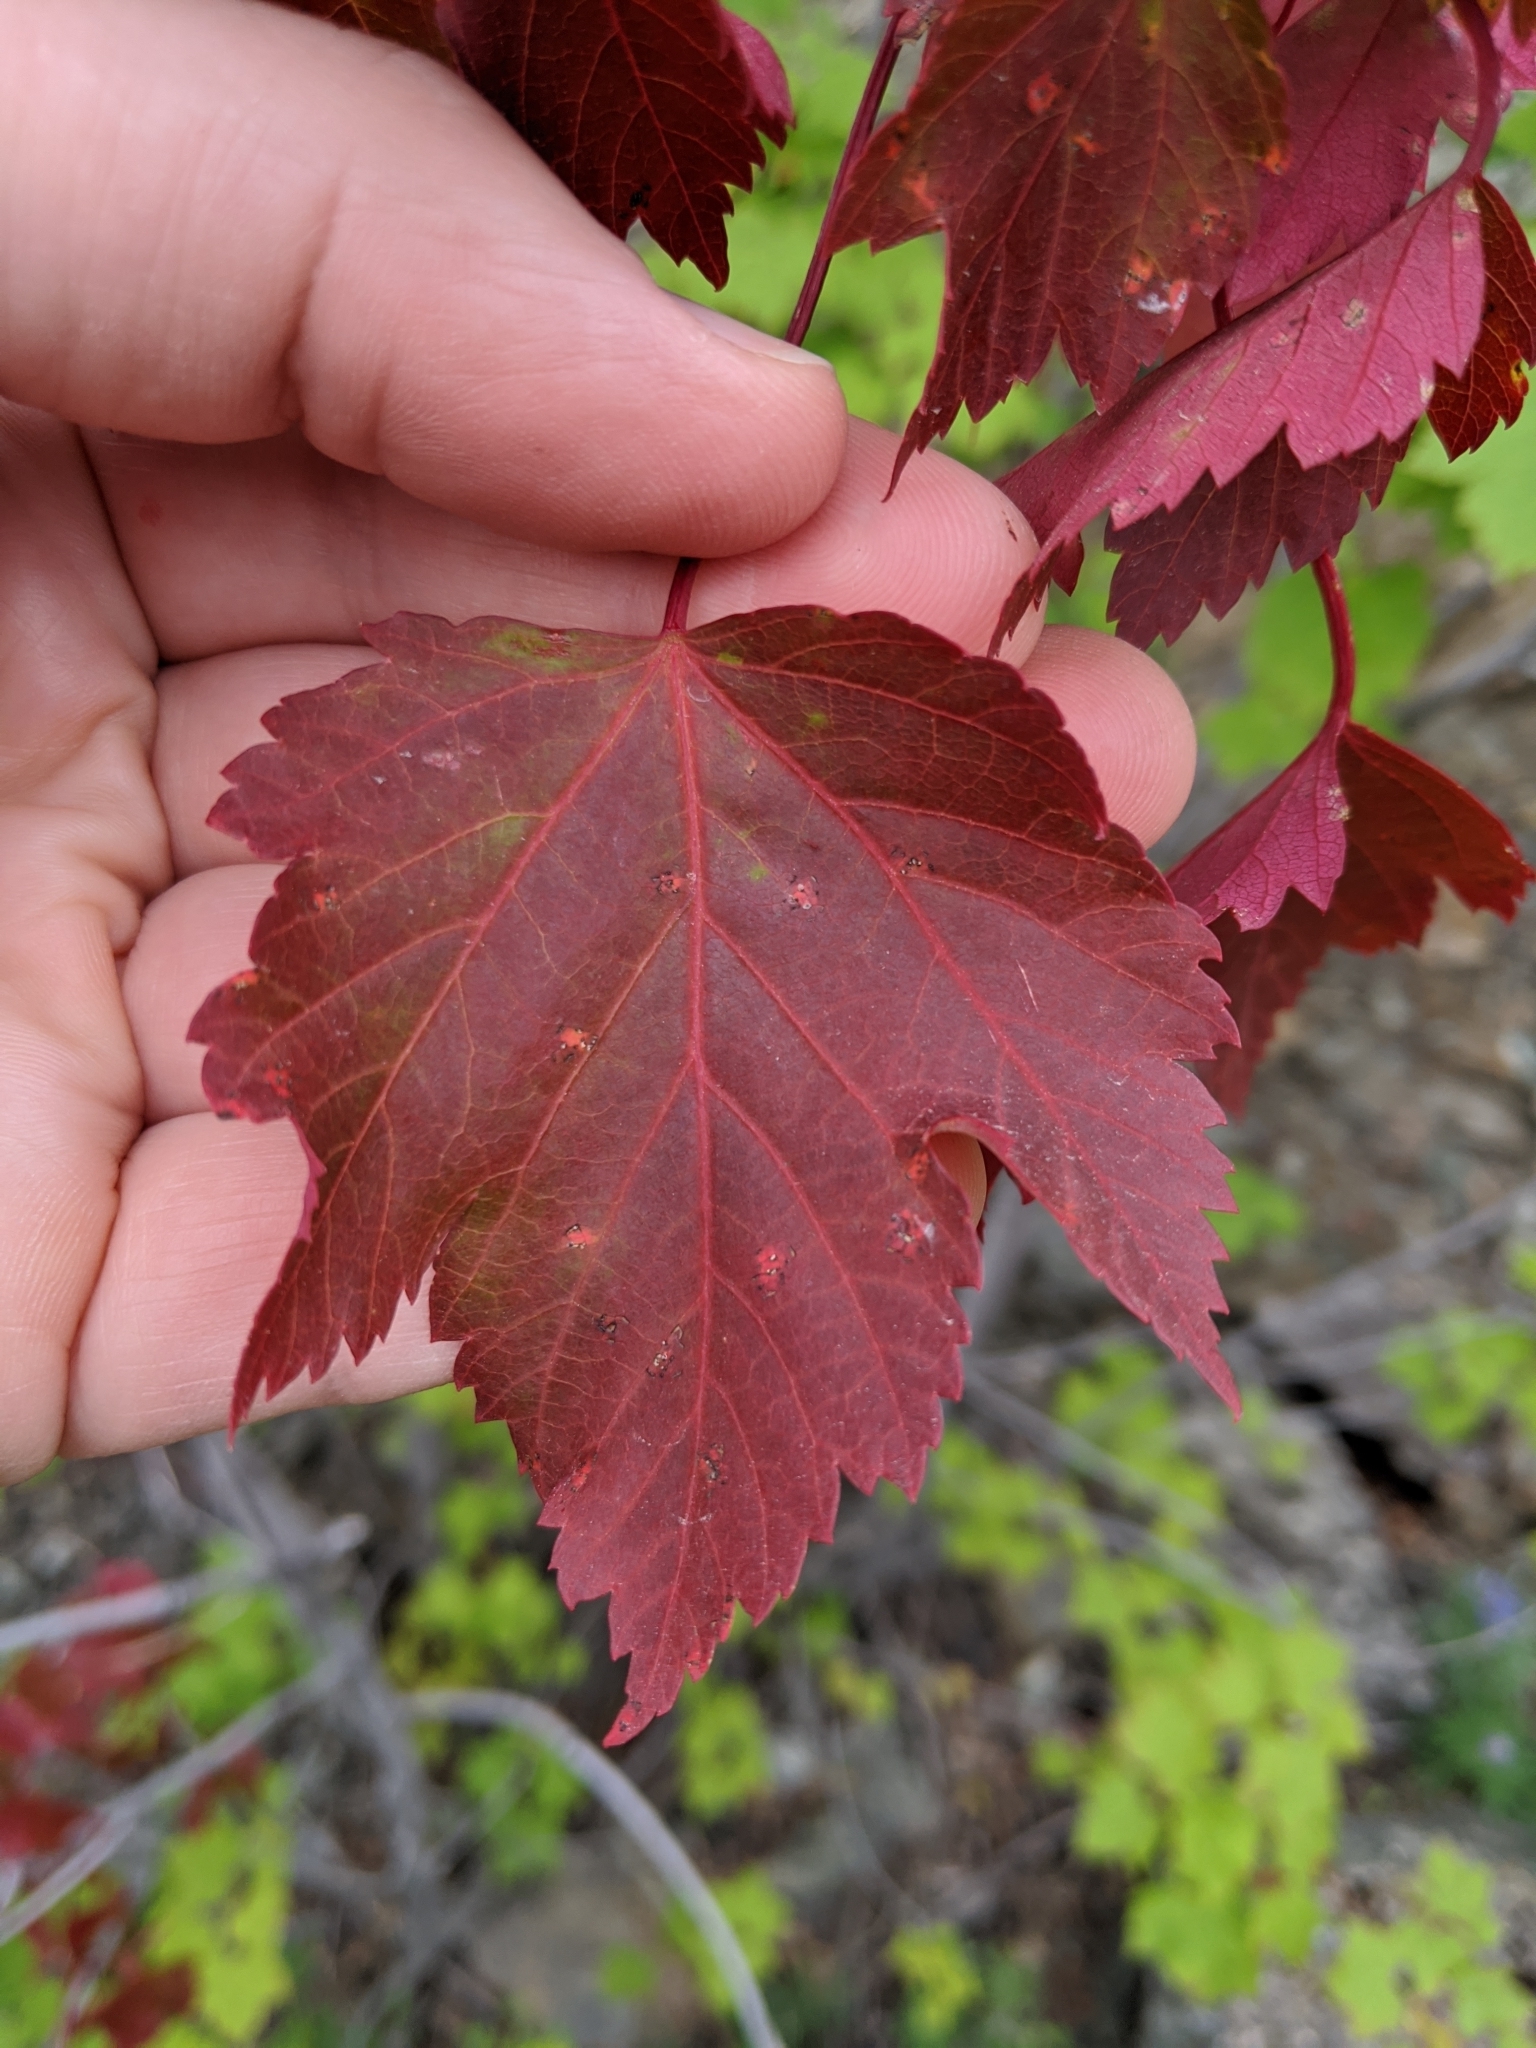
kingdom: Plantae
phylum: Tracheophyta
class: Magnoliopsida
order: Sapindales
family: Sapindaceae
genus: Acer
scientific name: Acer glabrum
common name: Rocky mountain maple
